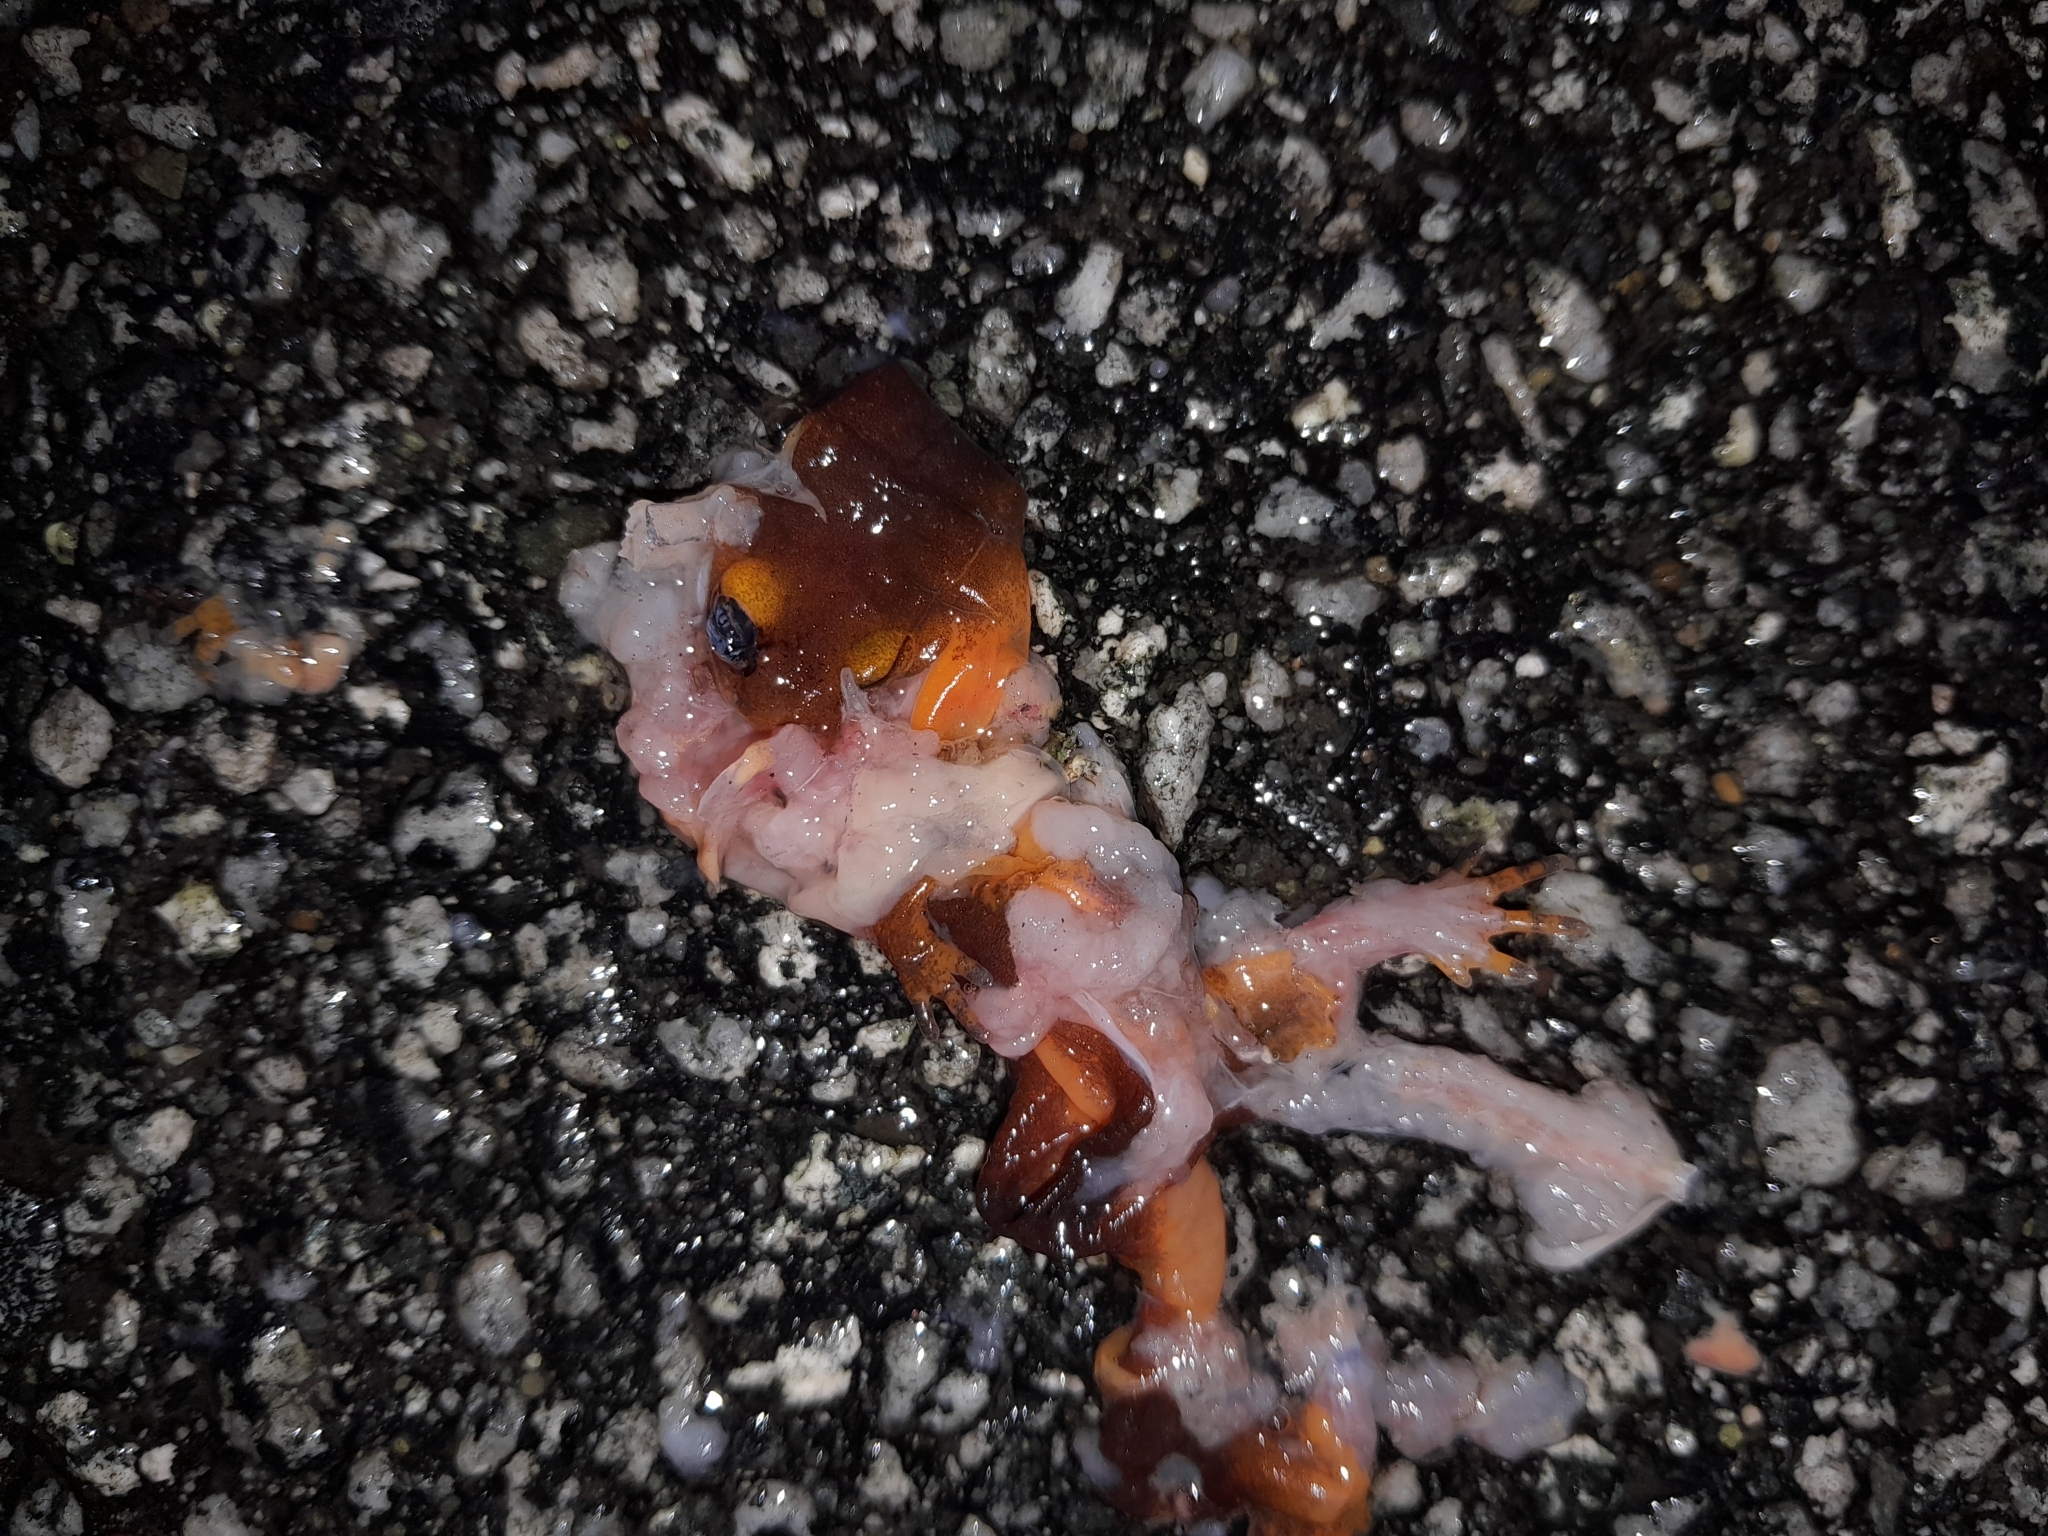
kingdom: Animalia
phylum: Chordata
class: Amphibia
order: Caudata
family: Plethodontidae
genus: Ensatina
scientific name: Ensatina eschscholtzii
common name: Ensatina
